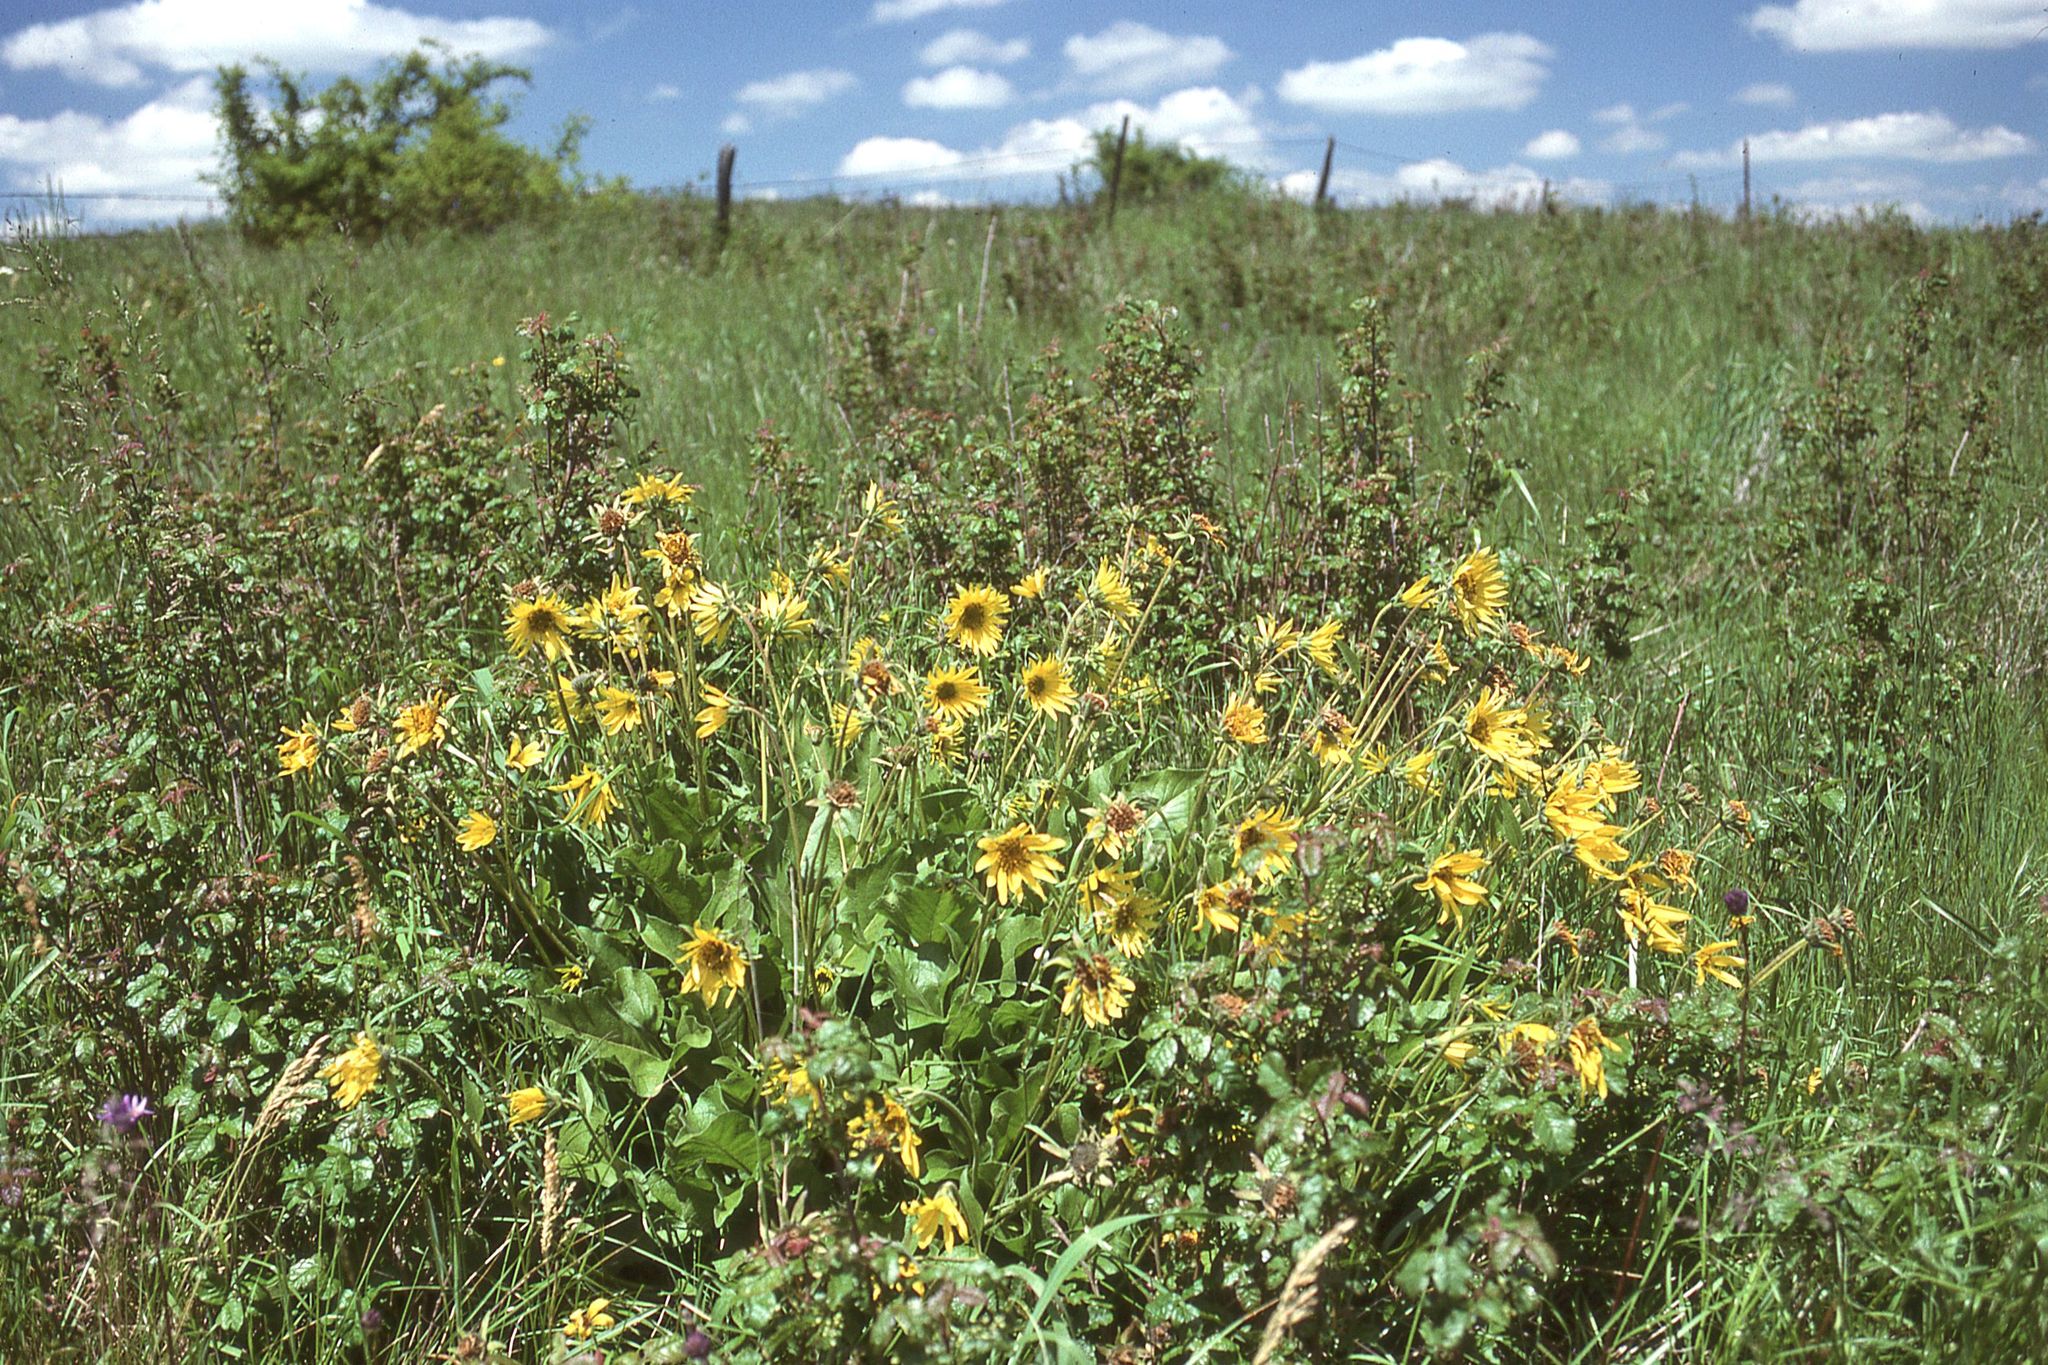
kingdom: Plantae
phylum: Tracheophyta
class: Magnoliopsida
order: Asterales
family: Asteraceae
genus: Balsamorhiza
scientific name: Balsamorhiza deltoidea
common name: Deltoid balsamroot
